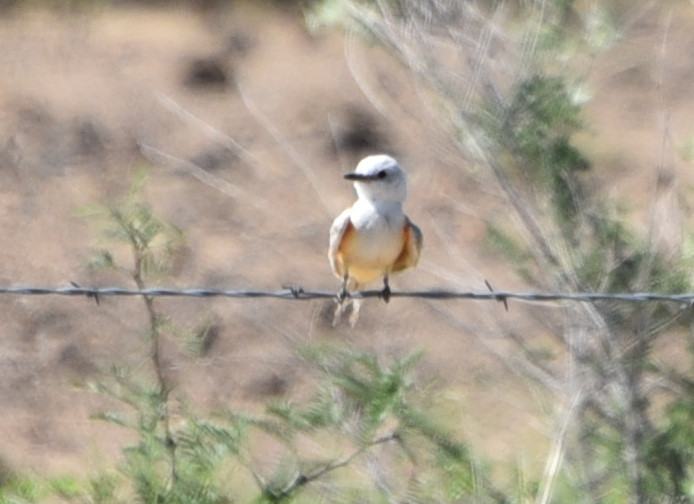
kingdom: Animalia
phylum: Chordata
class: Aves
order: Passeriformes
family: Tyrannidae
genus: Tyrannus
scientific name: Tyrannus forficatus
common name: Scissor-tailed flycatcher
